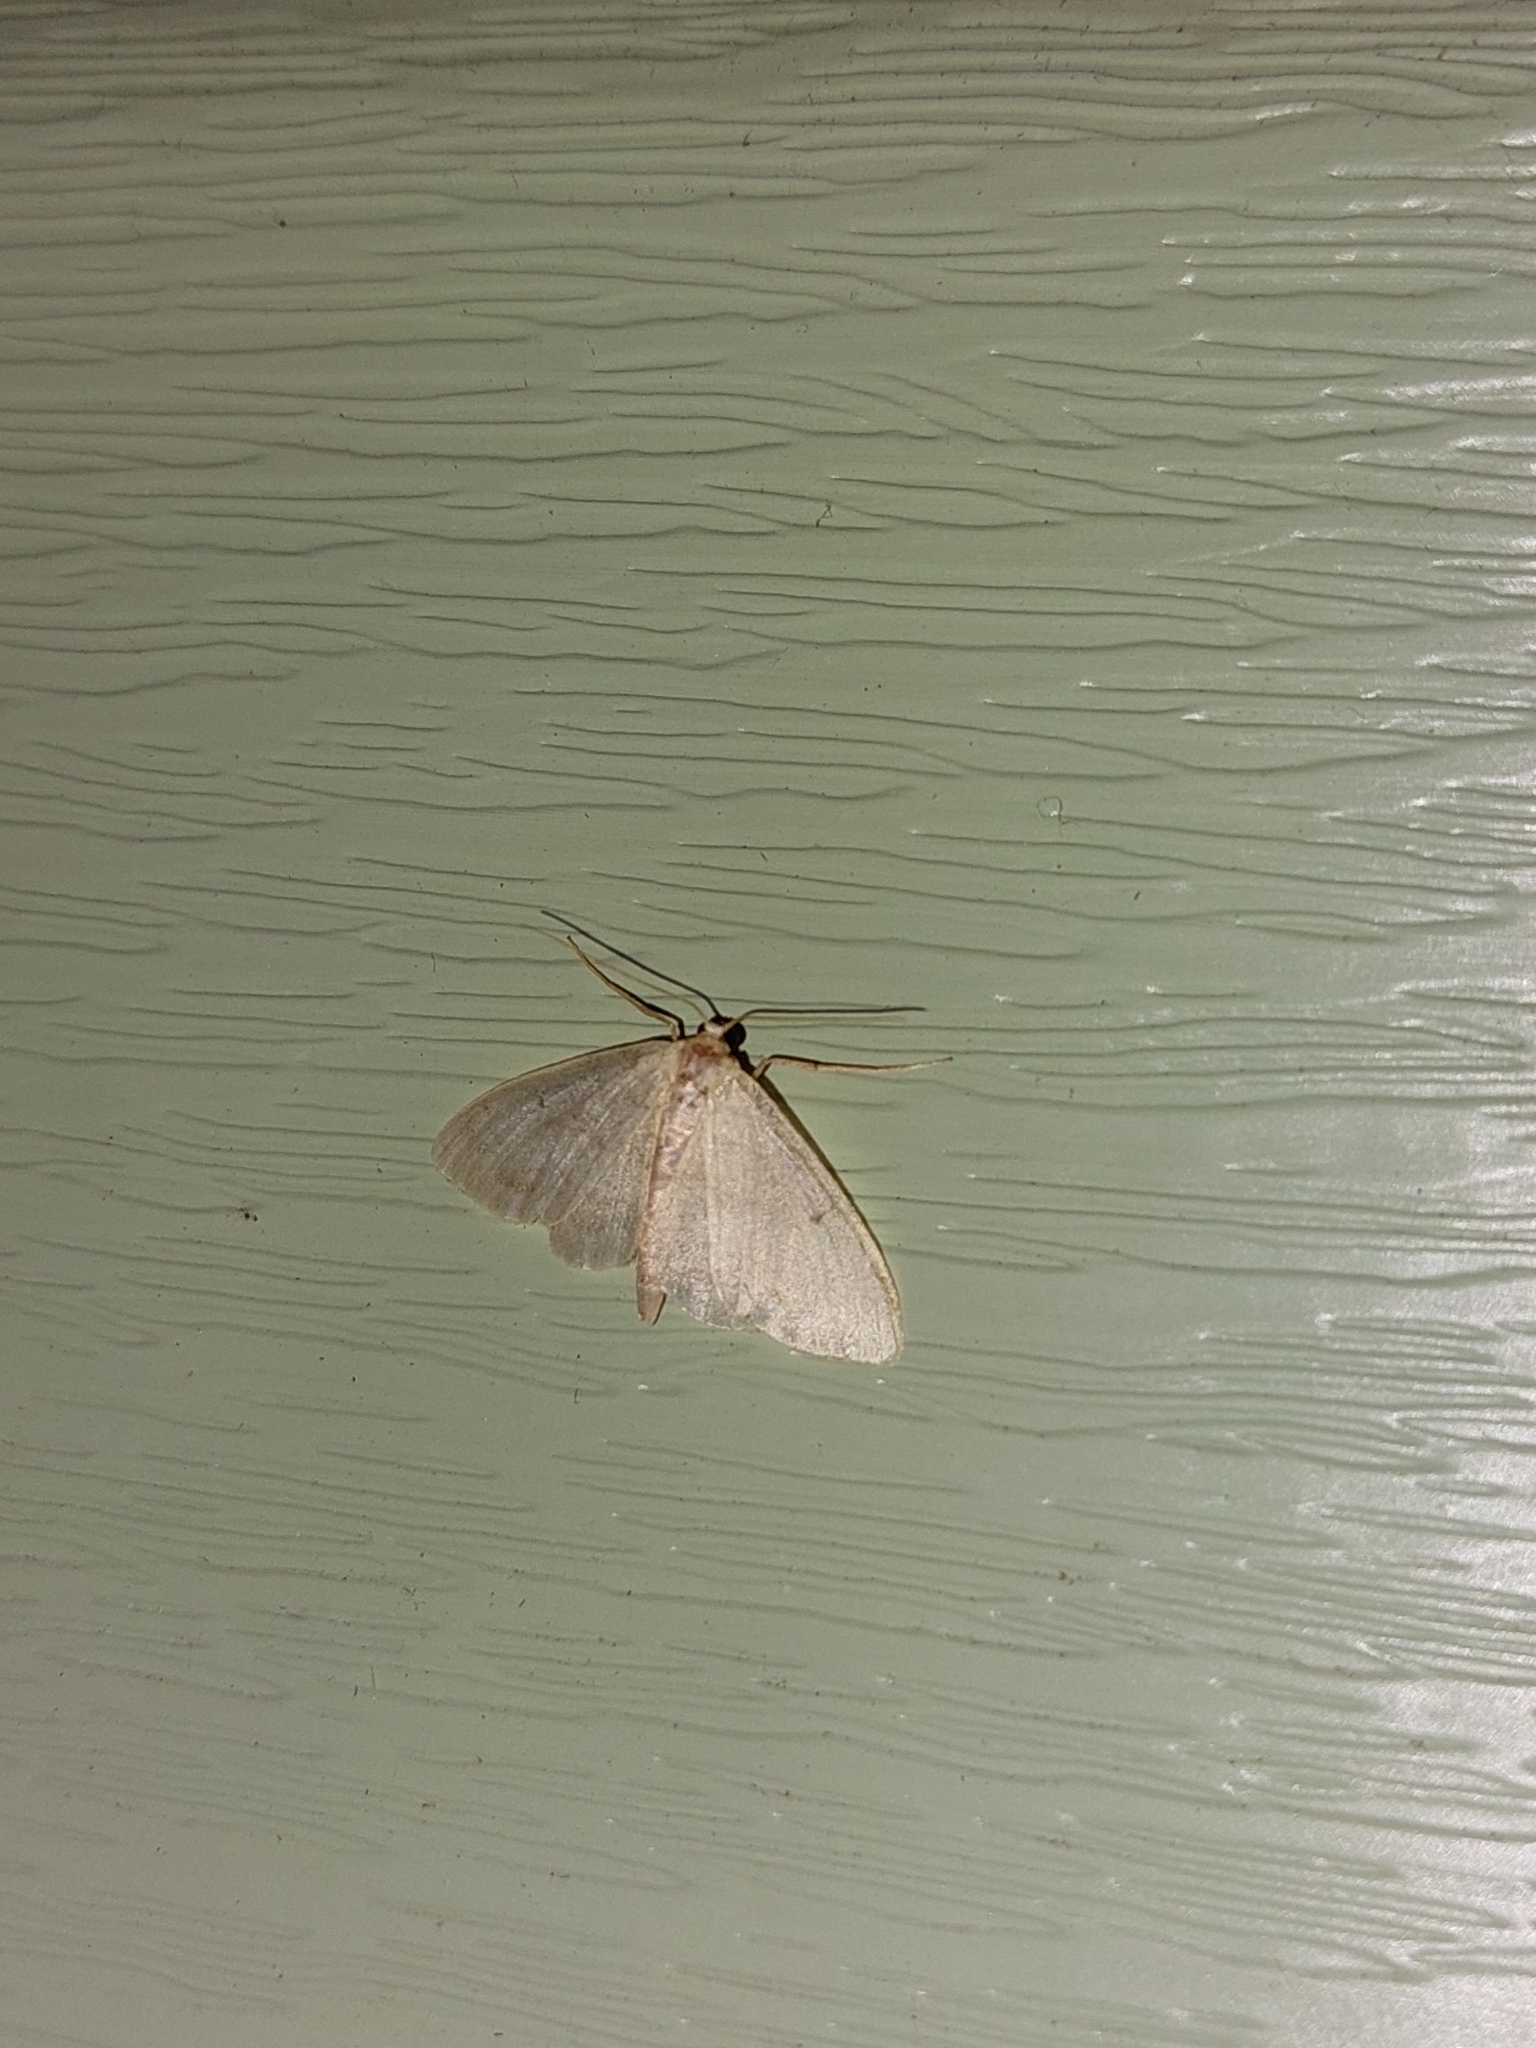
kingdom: Animalia
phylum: Arthropoda
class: Insecta
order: Lepidoptera
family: Geometridae
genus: Idaea
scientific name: Idaea biselata
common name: Small fan-footed wave
